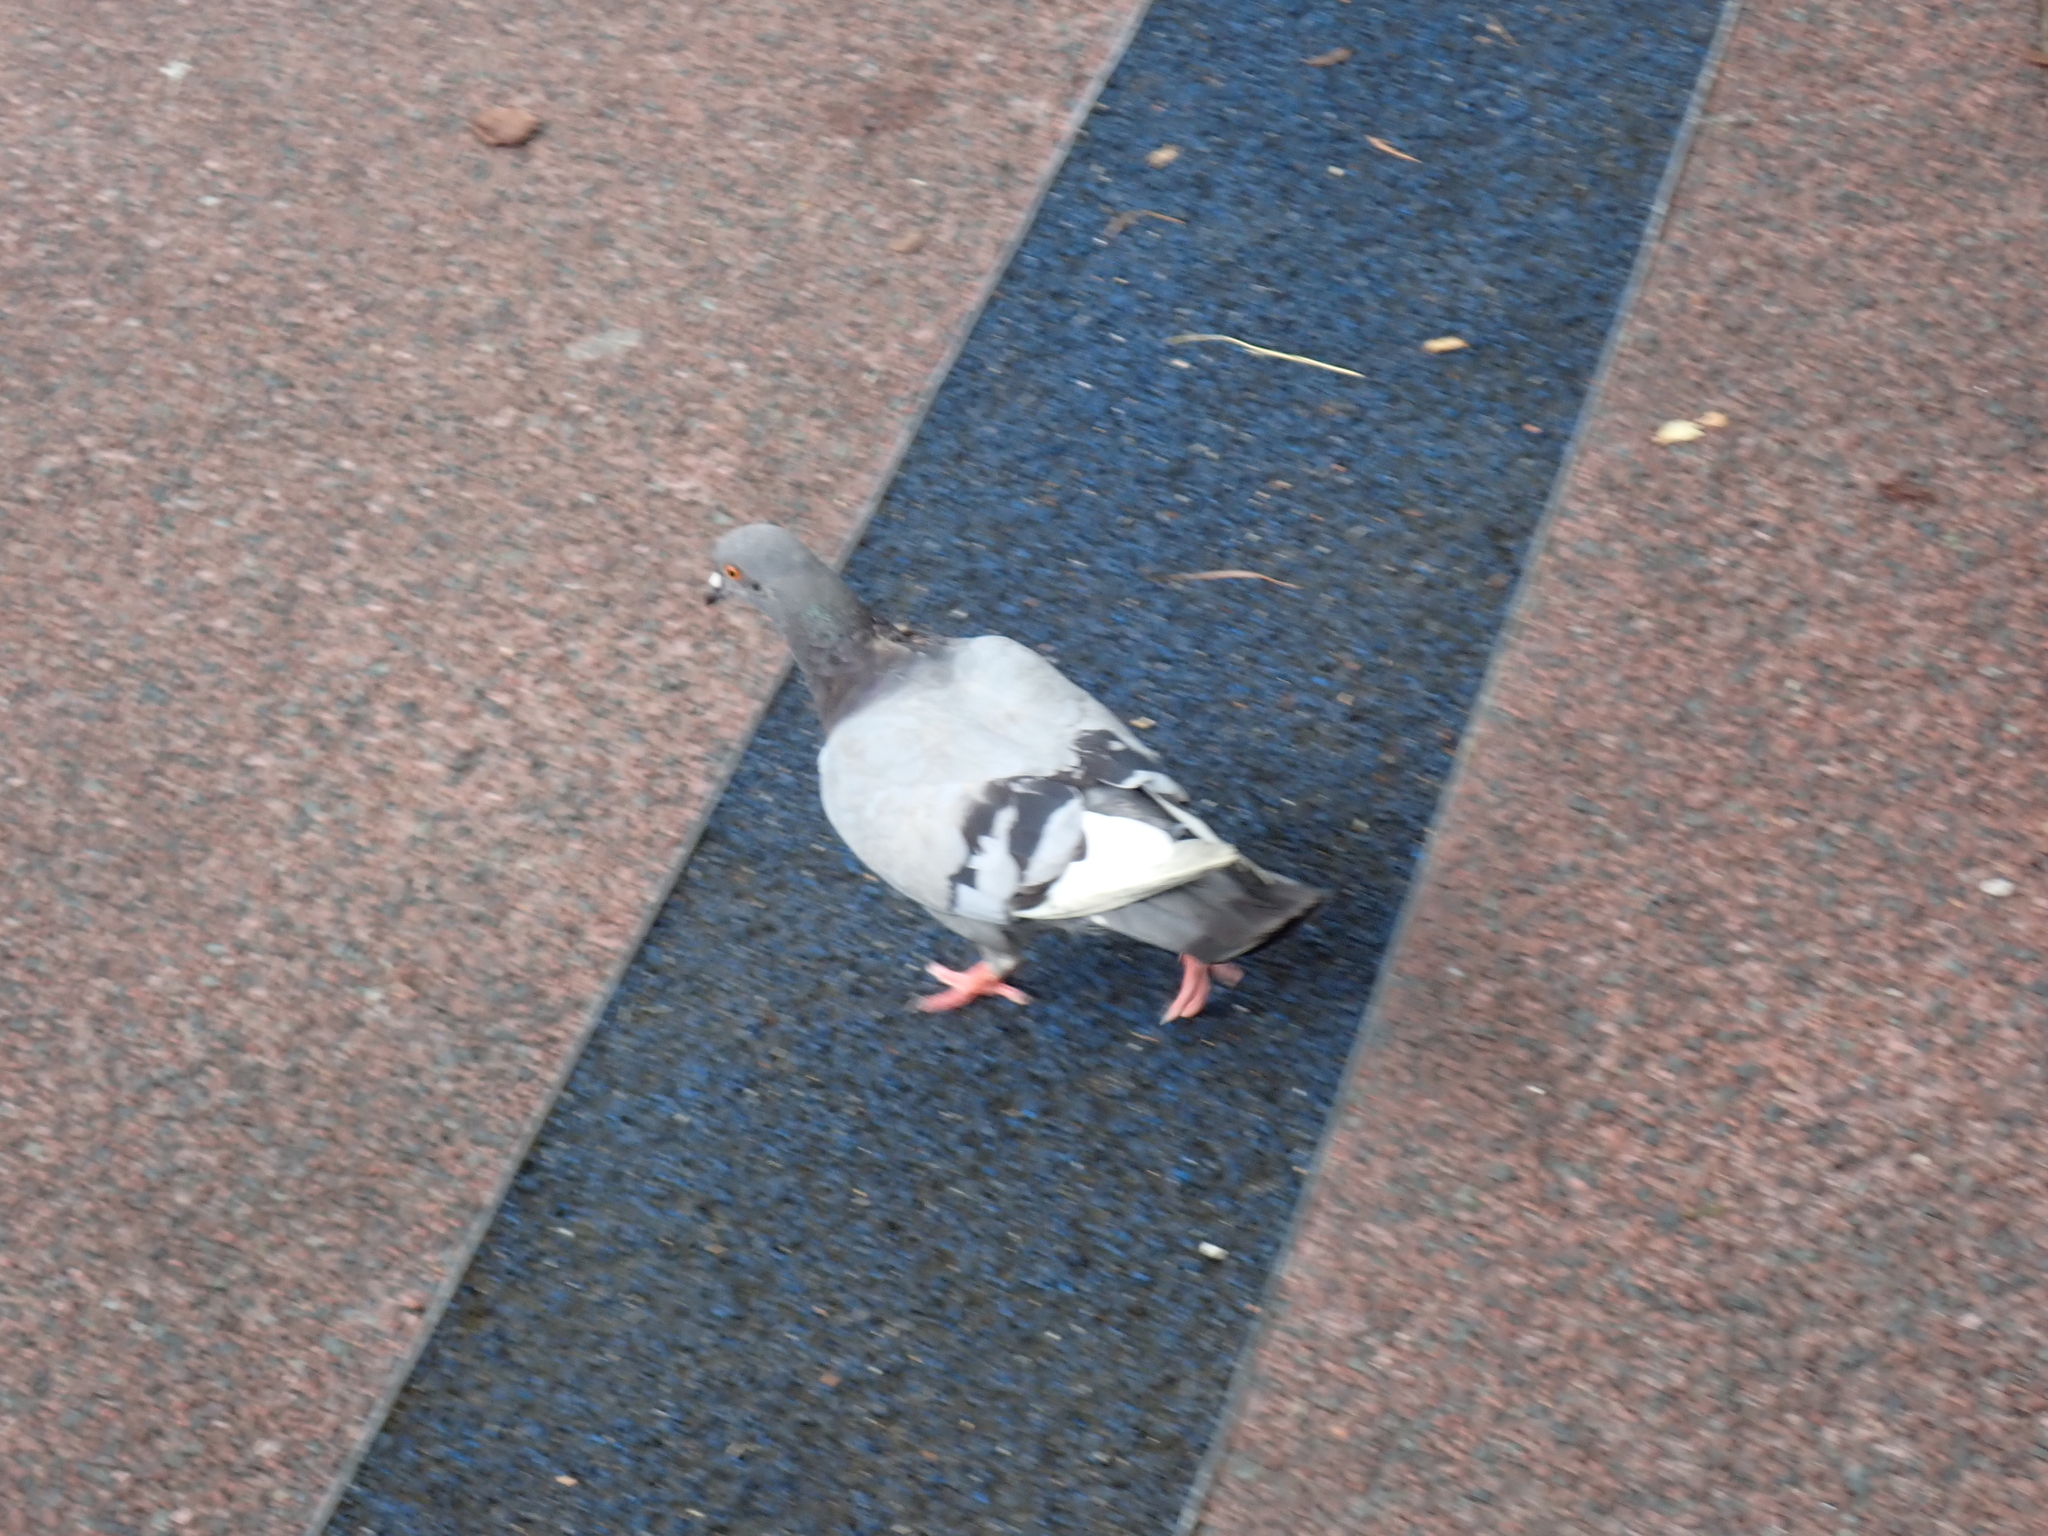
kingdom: Animalia
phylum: Chordata
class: Aves
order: Columbiformes
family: Columbidae
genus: Columba
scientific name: Columba livia
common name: Rock pigeon
